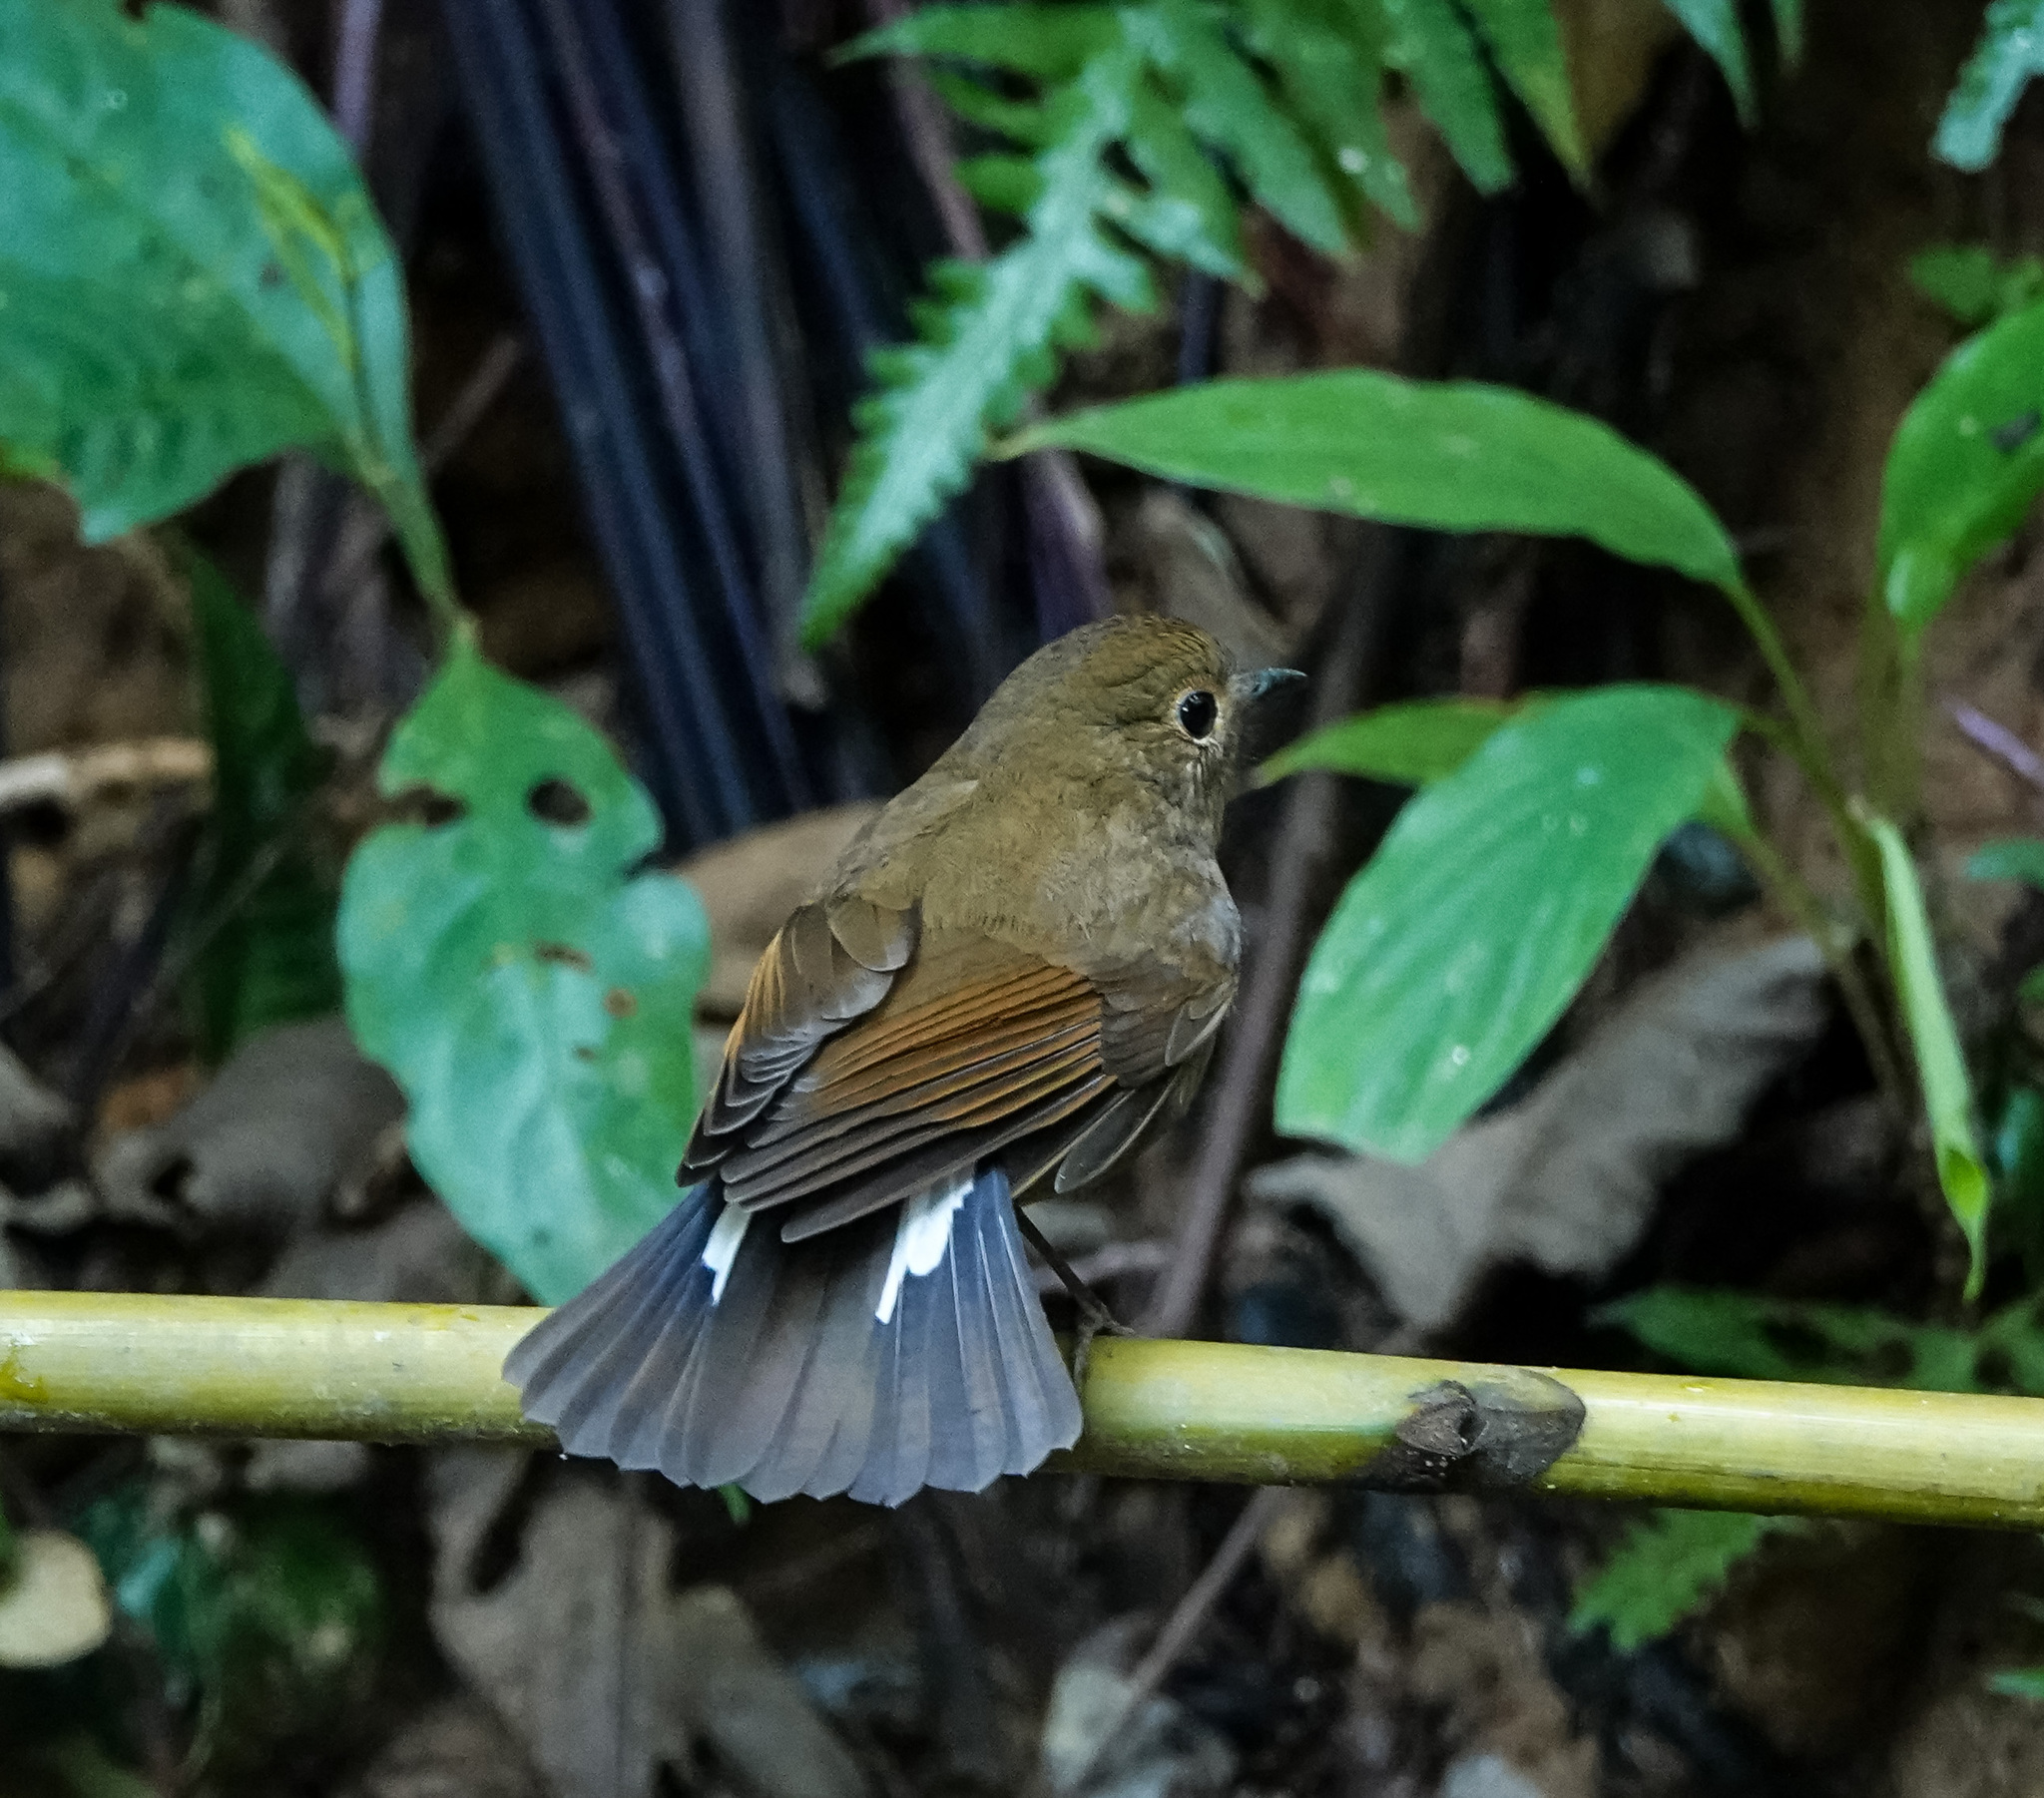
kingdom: Animalia
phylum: Chordata
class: Aves
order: Passeriformes
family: Muscicapidae
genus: Myiomela
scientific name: Myiomela leucura
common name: White-tailed robin
